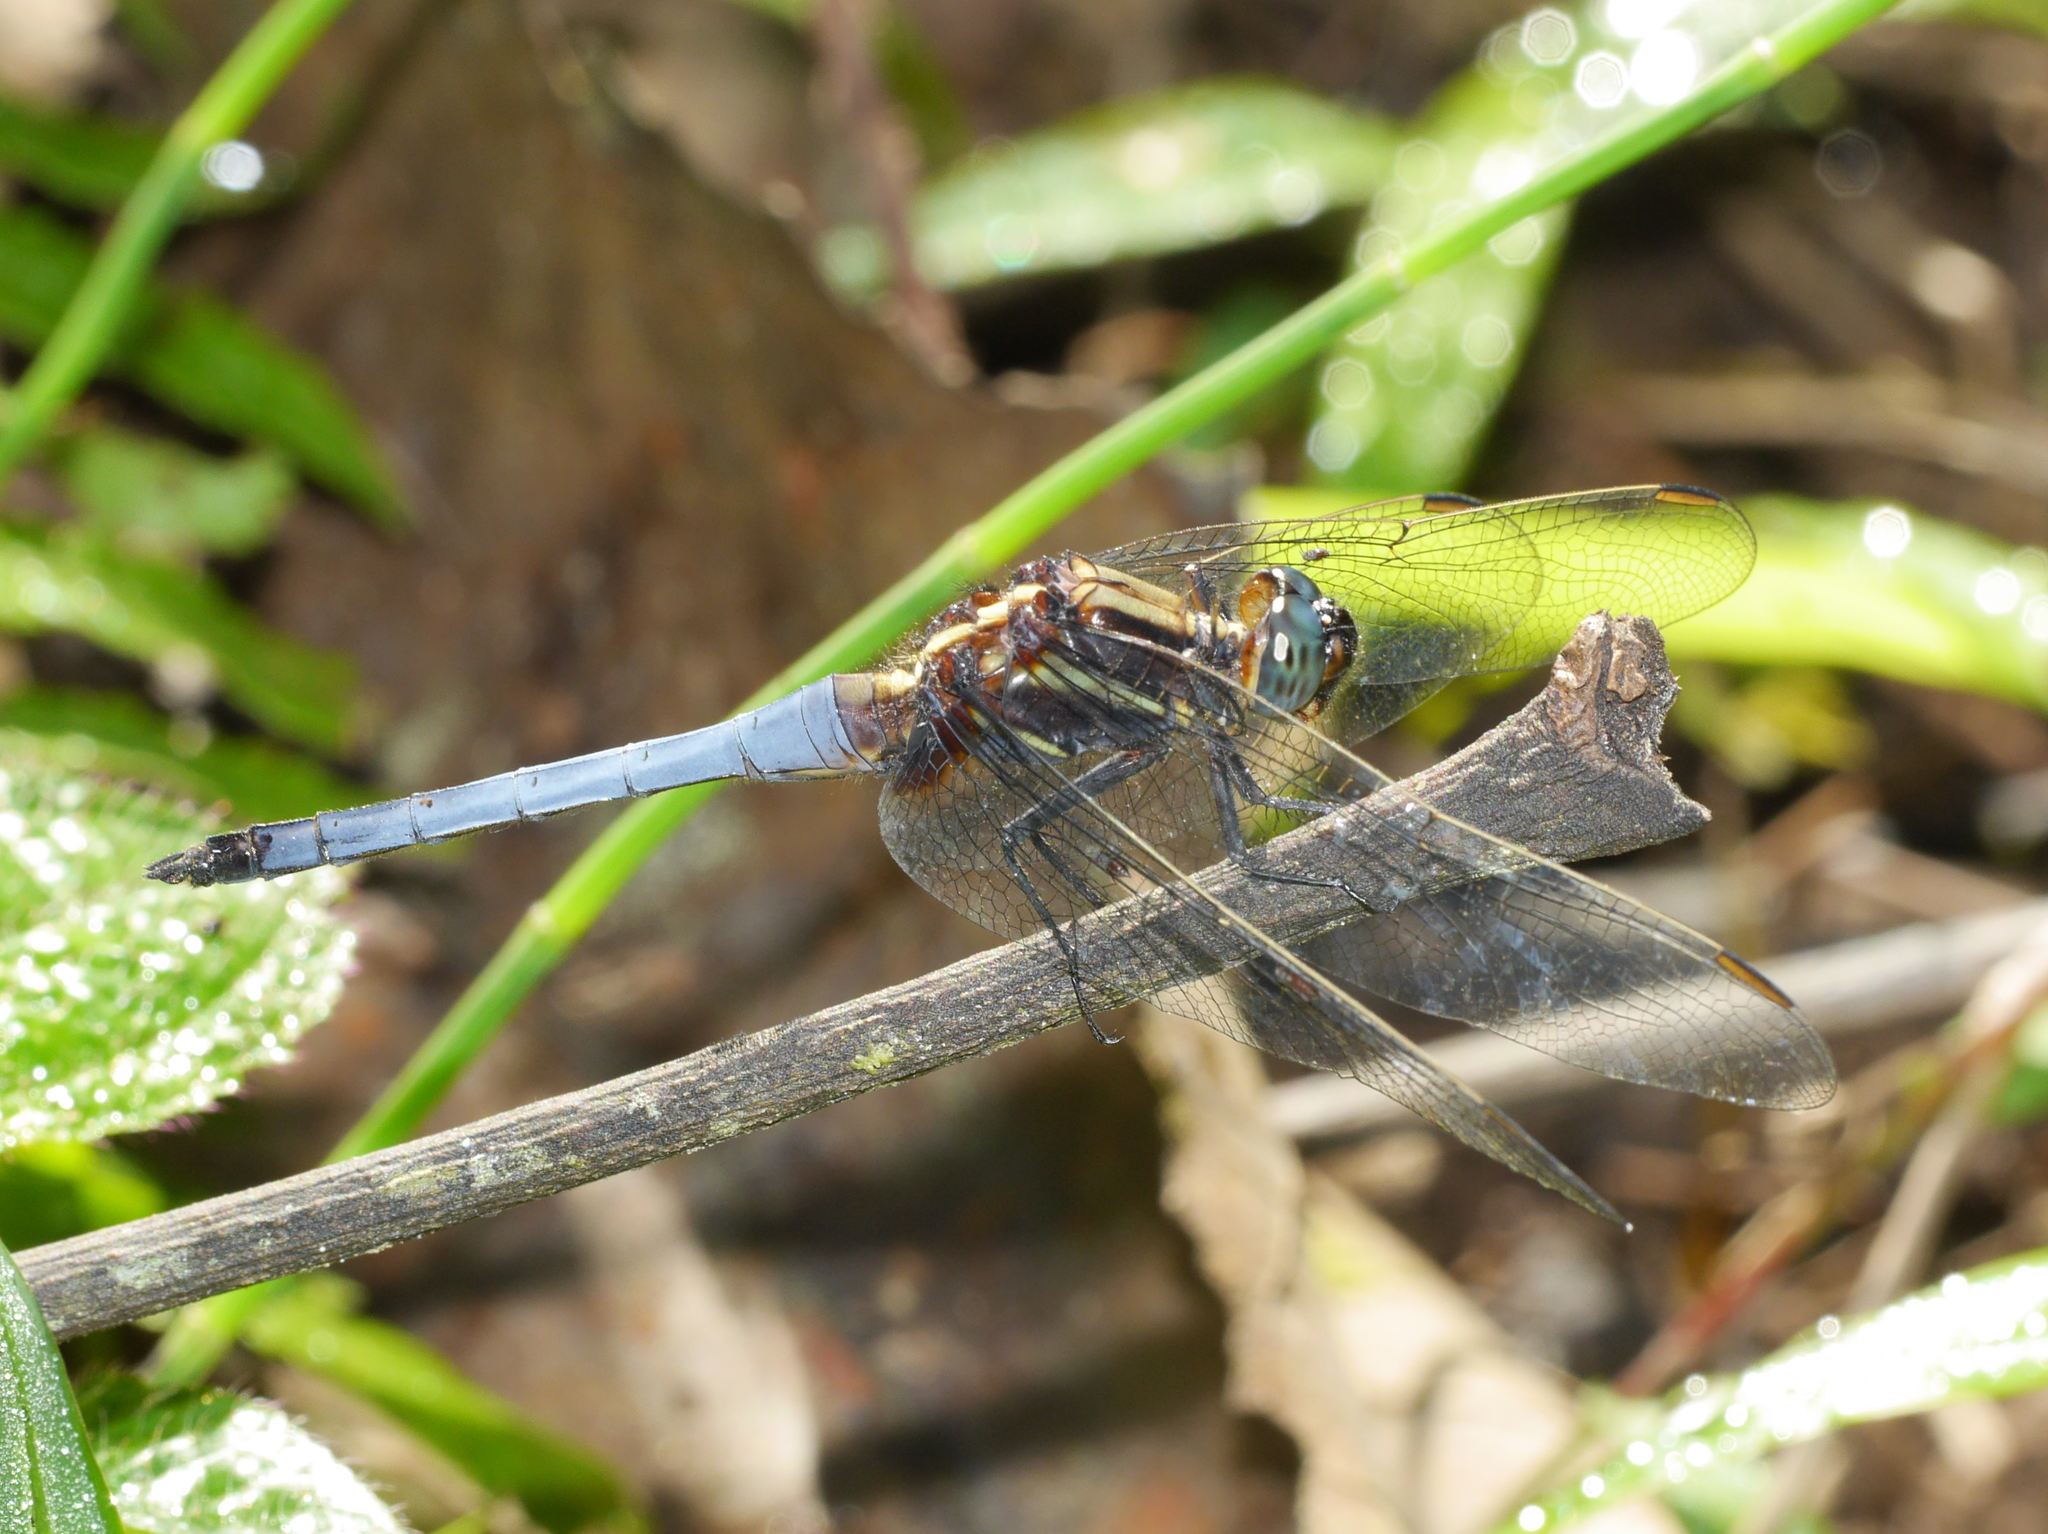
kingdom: Animalia
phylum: Arthropoda
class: Insecta
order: Odonata
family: Libellulidae
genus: Orthetrum
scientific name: Orthetrum glaucum
